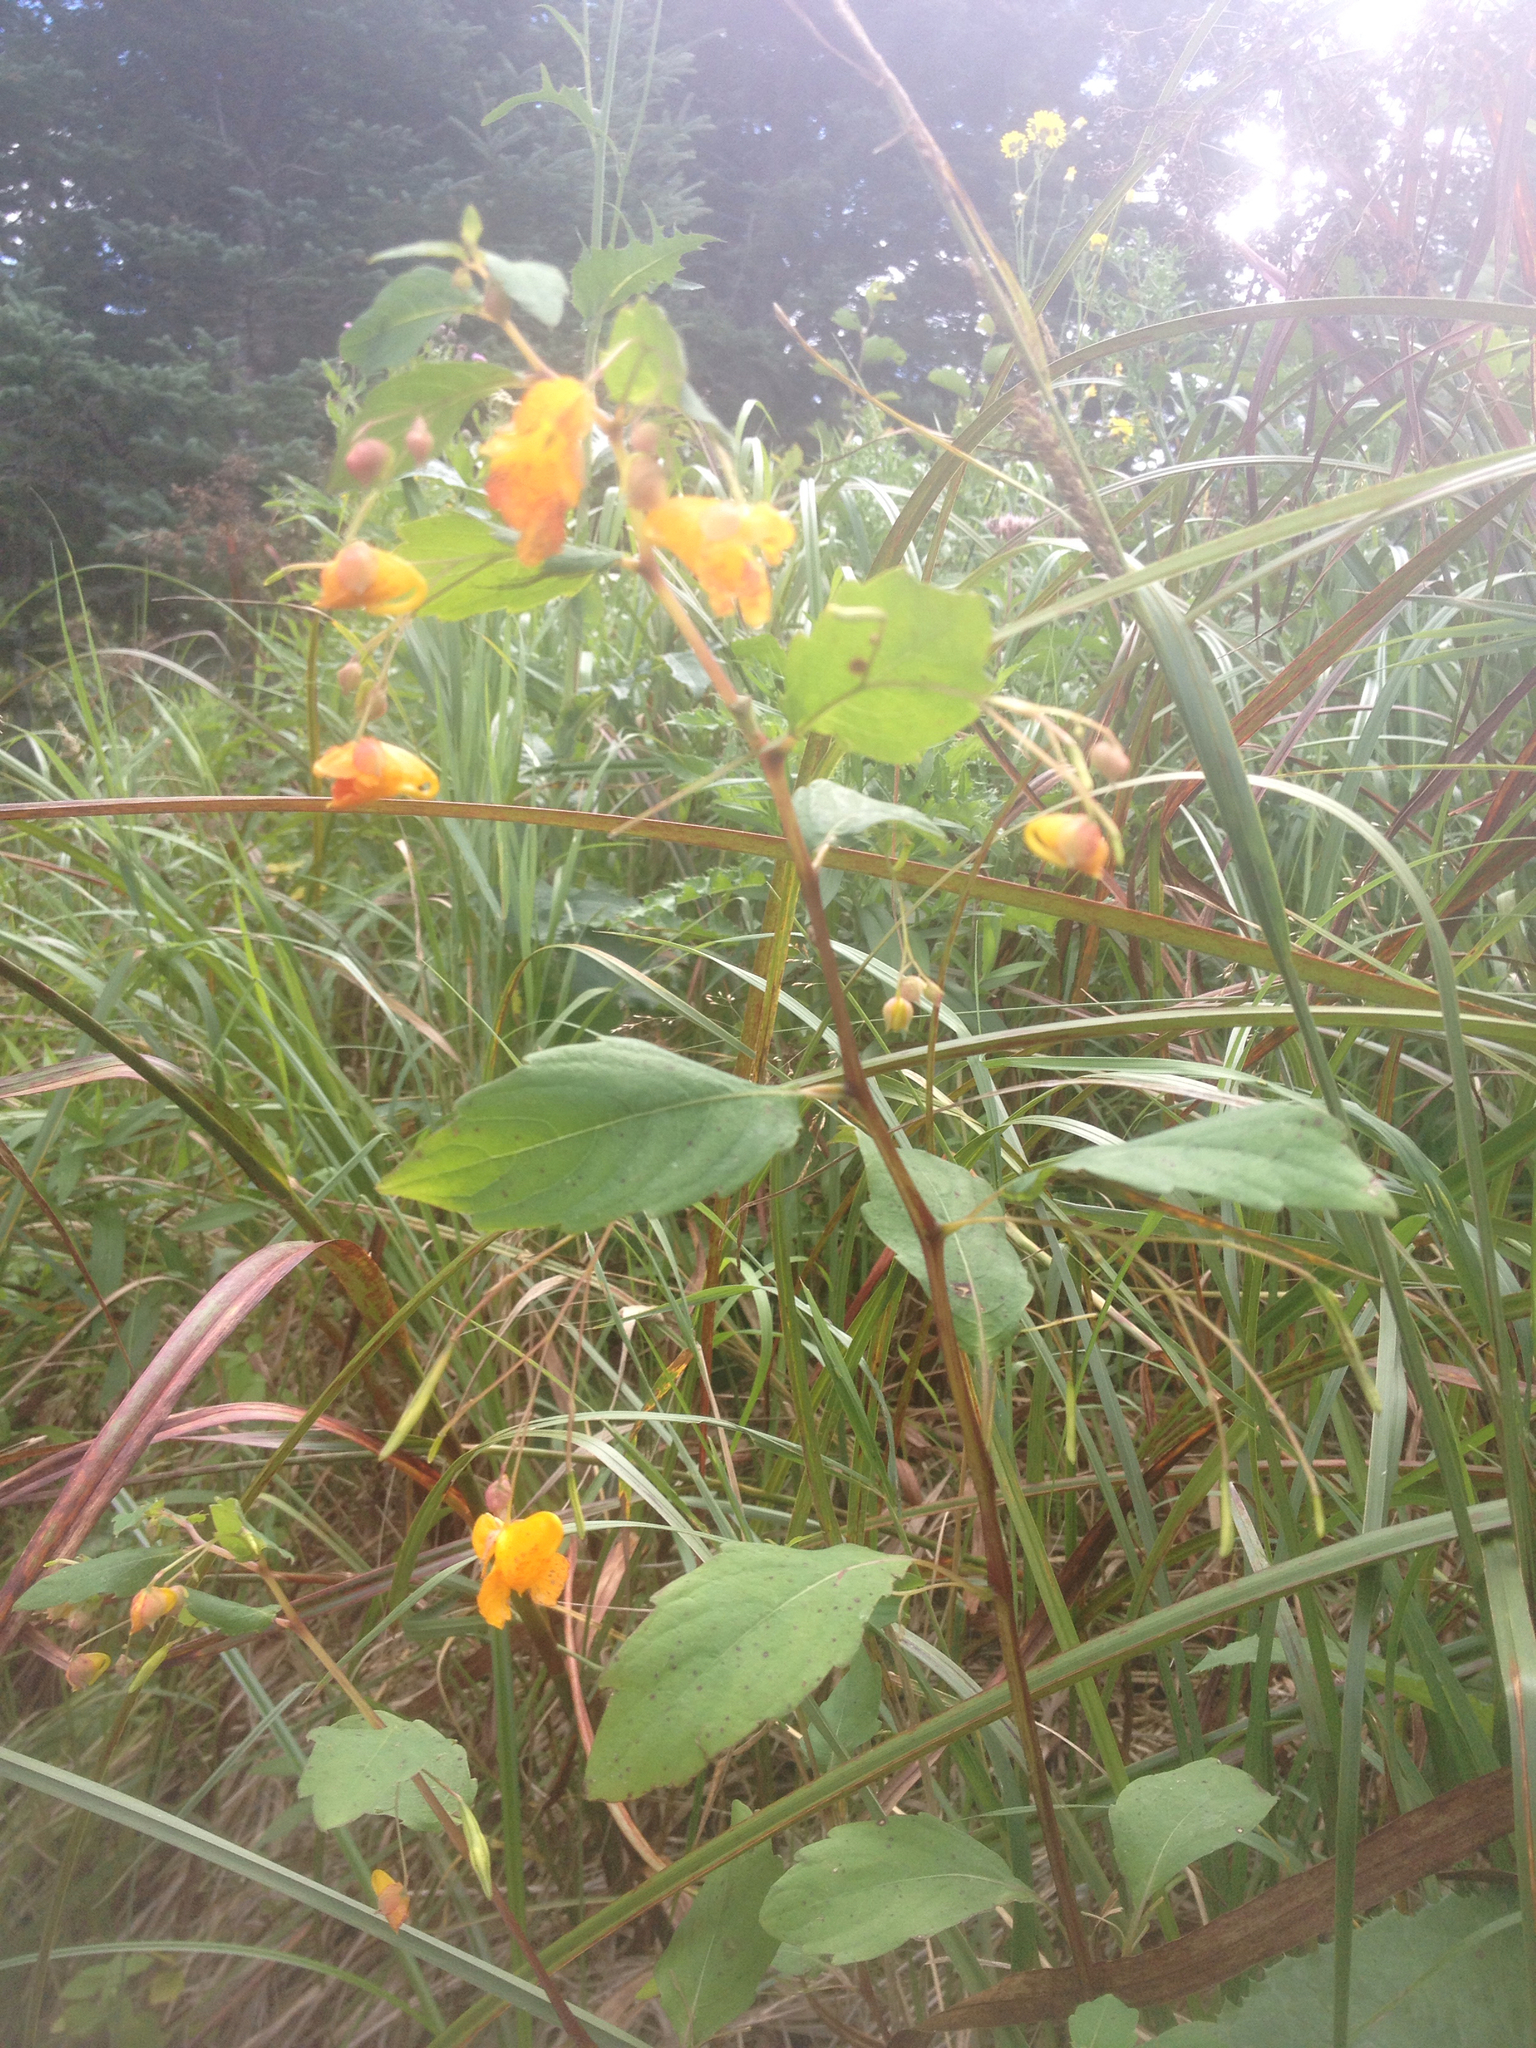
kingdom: Plantae
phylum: Tracheophyta
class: Magnoliopsida
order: Ericales
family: Balsaminaceae
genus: Impatiens
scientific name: Impatiens capensis
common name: Orange balsam
